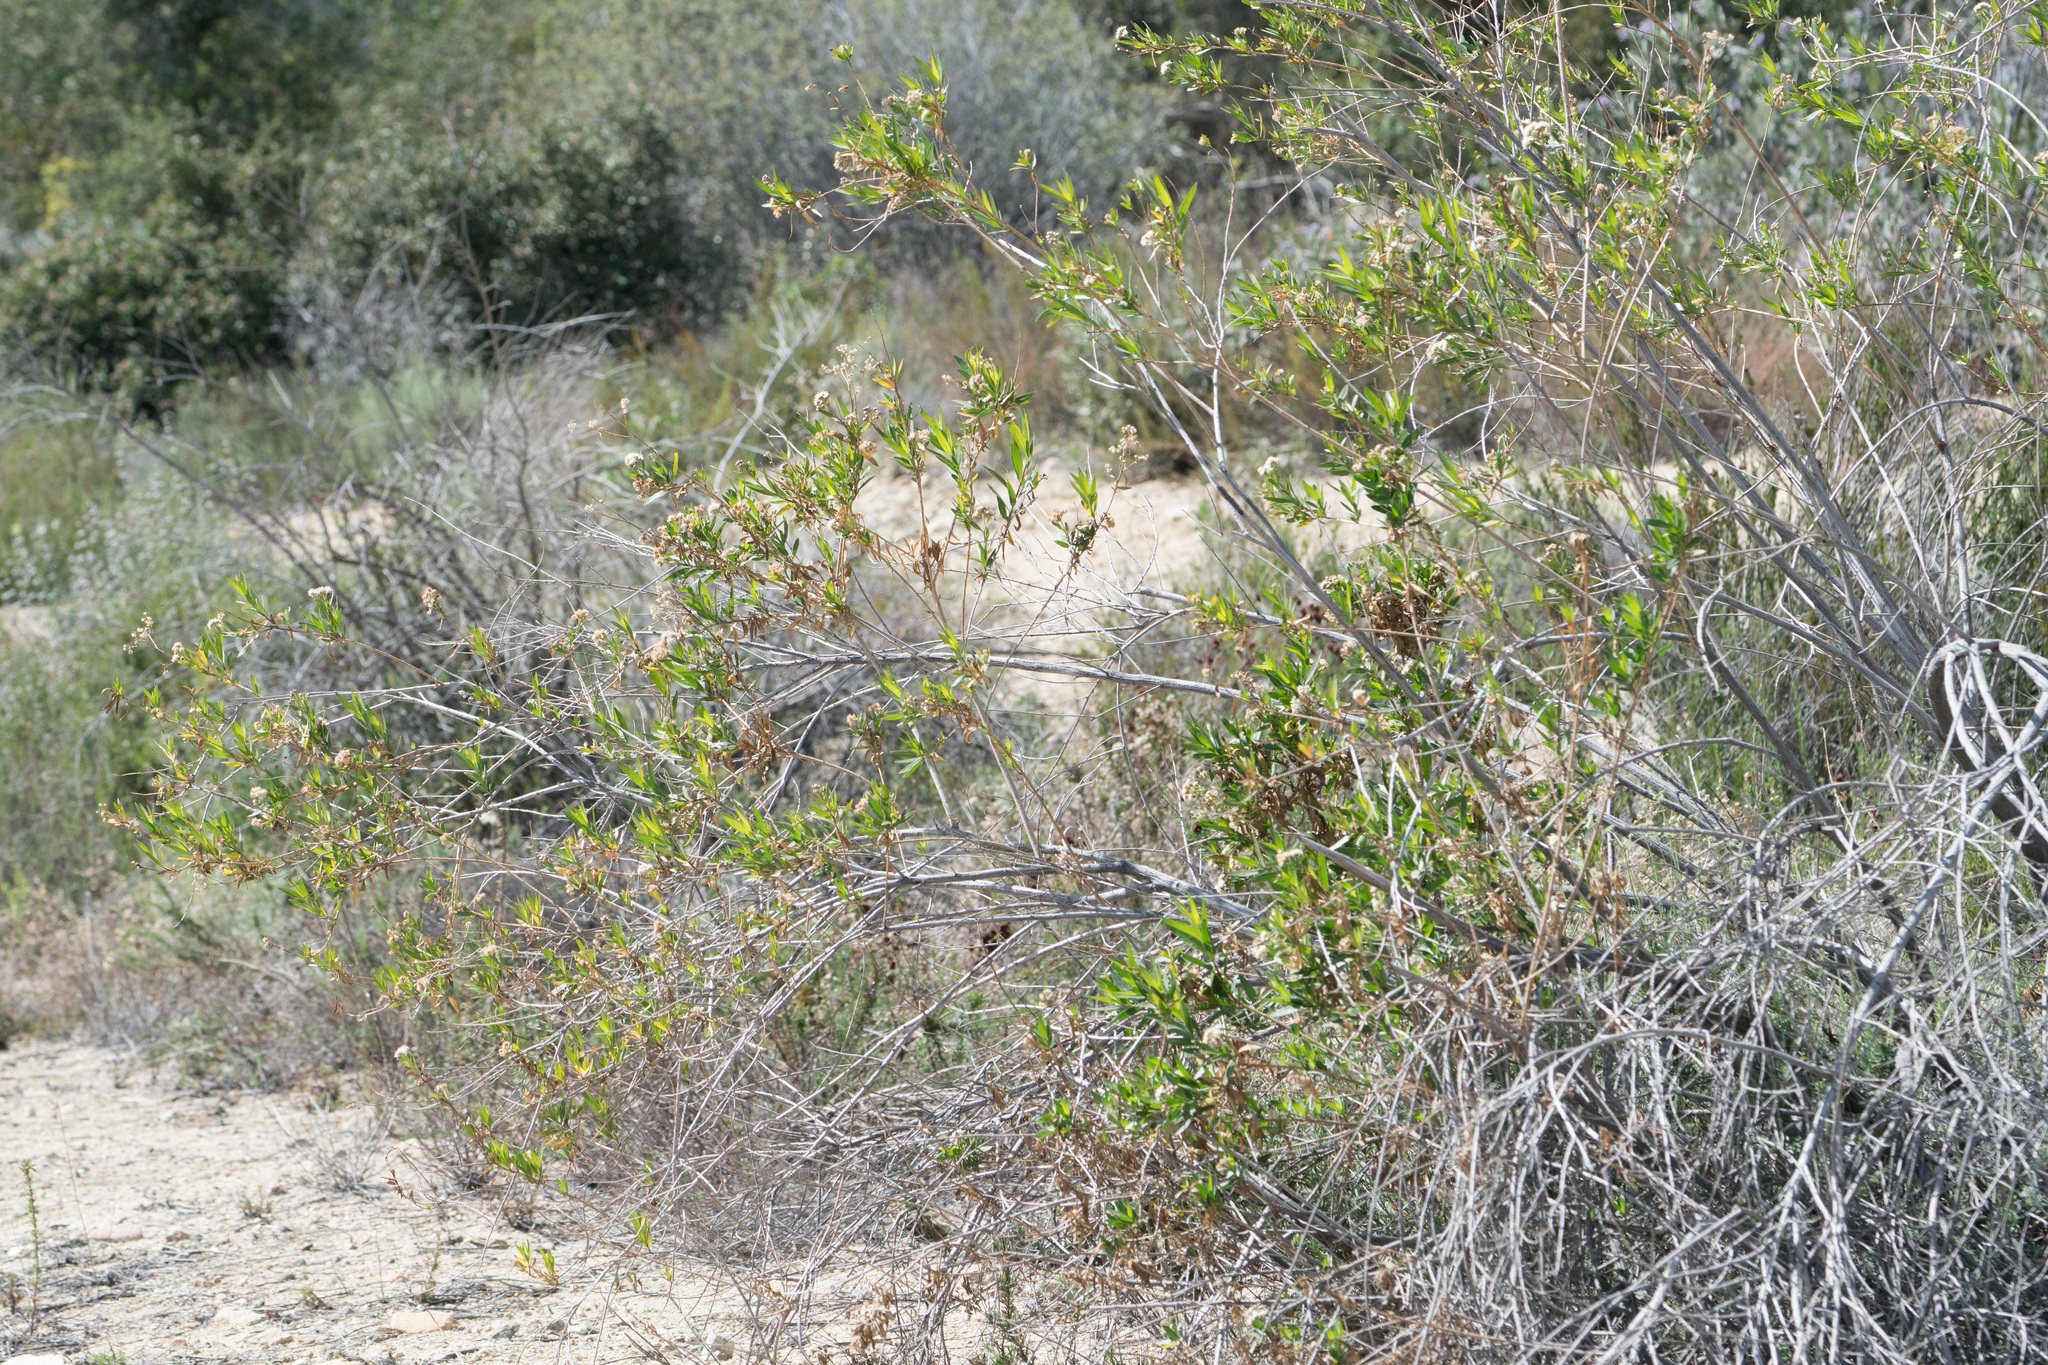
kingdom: Plantae
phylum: Tracheophyta
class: Magnoliopsida
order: Asterales
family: Asteraceae
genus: Baccharis
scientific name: Baccharis salicifolia
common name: Sticky baccharis
